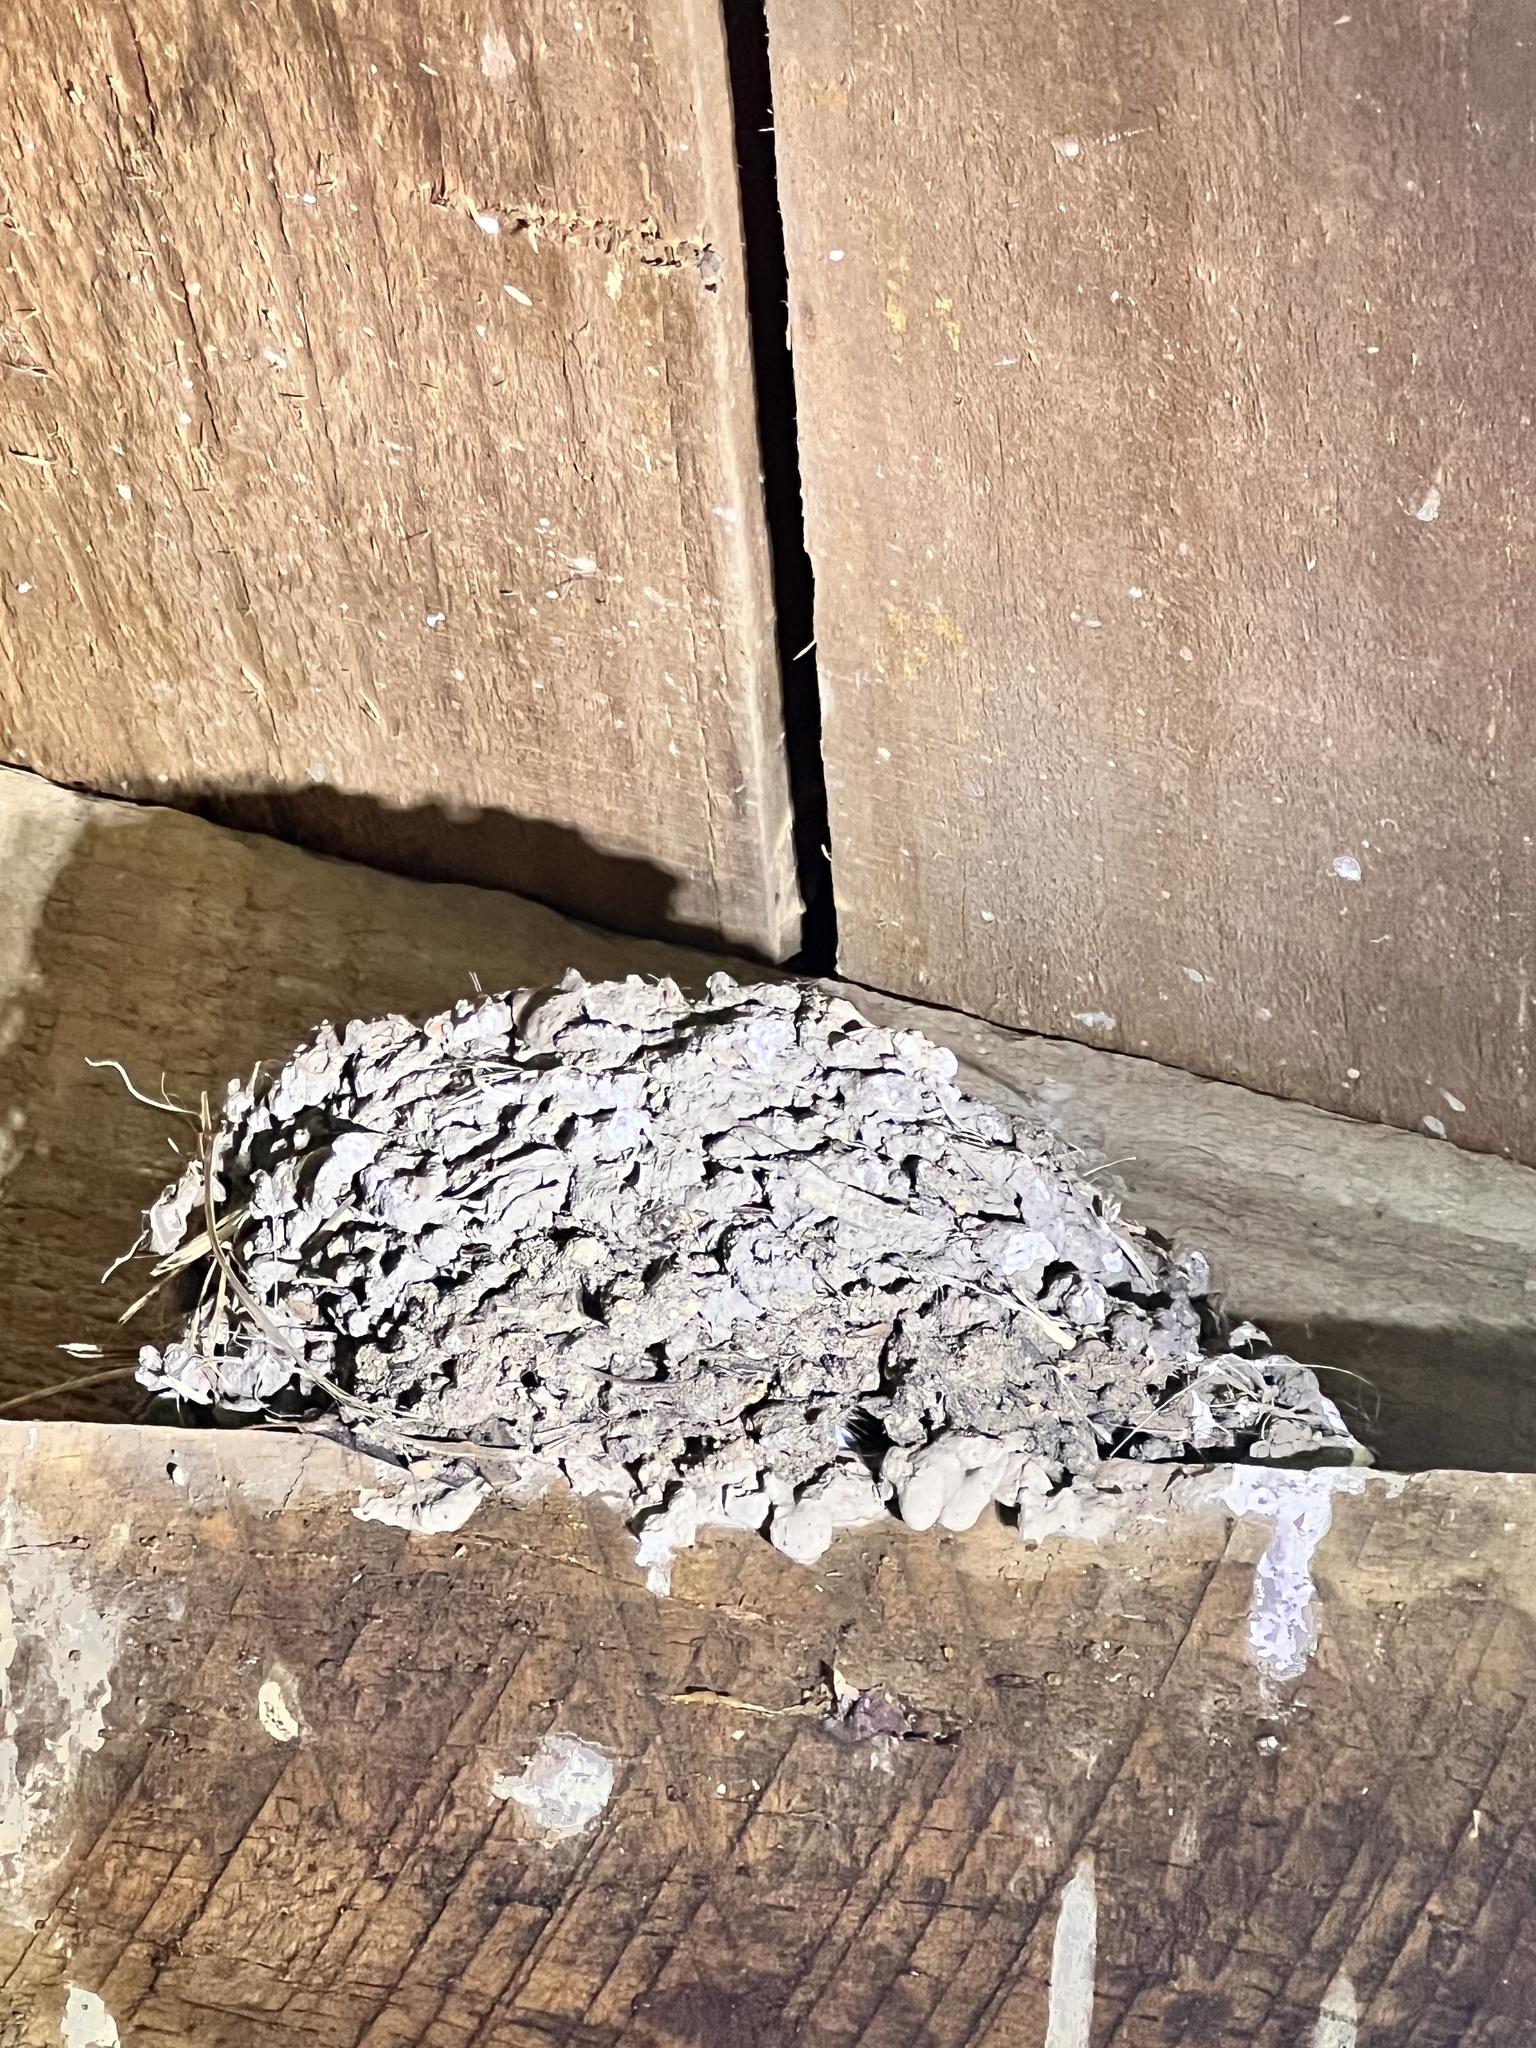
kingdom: Animalia
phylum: Chordata
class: Aves
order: Passeriformes
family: Hirundinidae
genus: Hirundo
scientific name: Hirundo neoxena
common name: Welcome swallow
